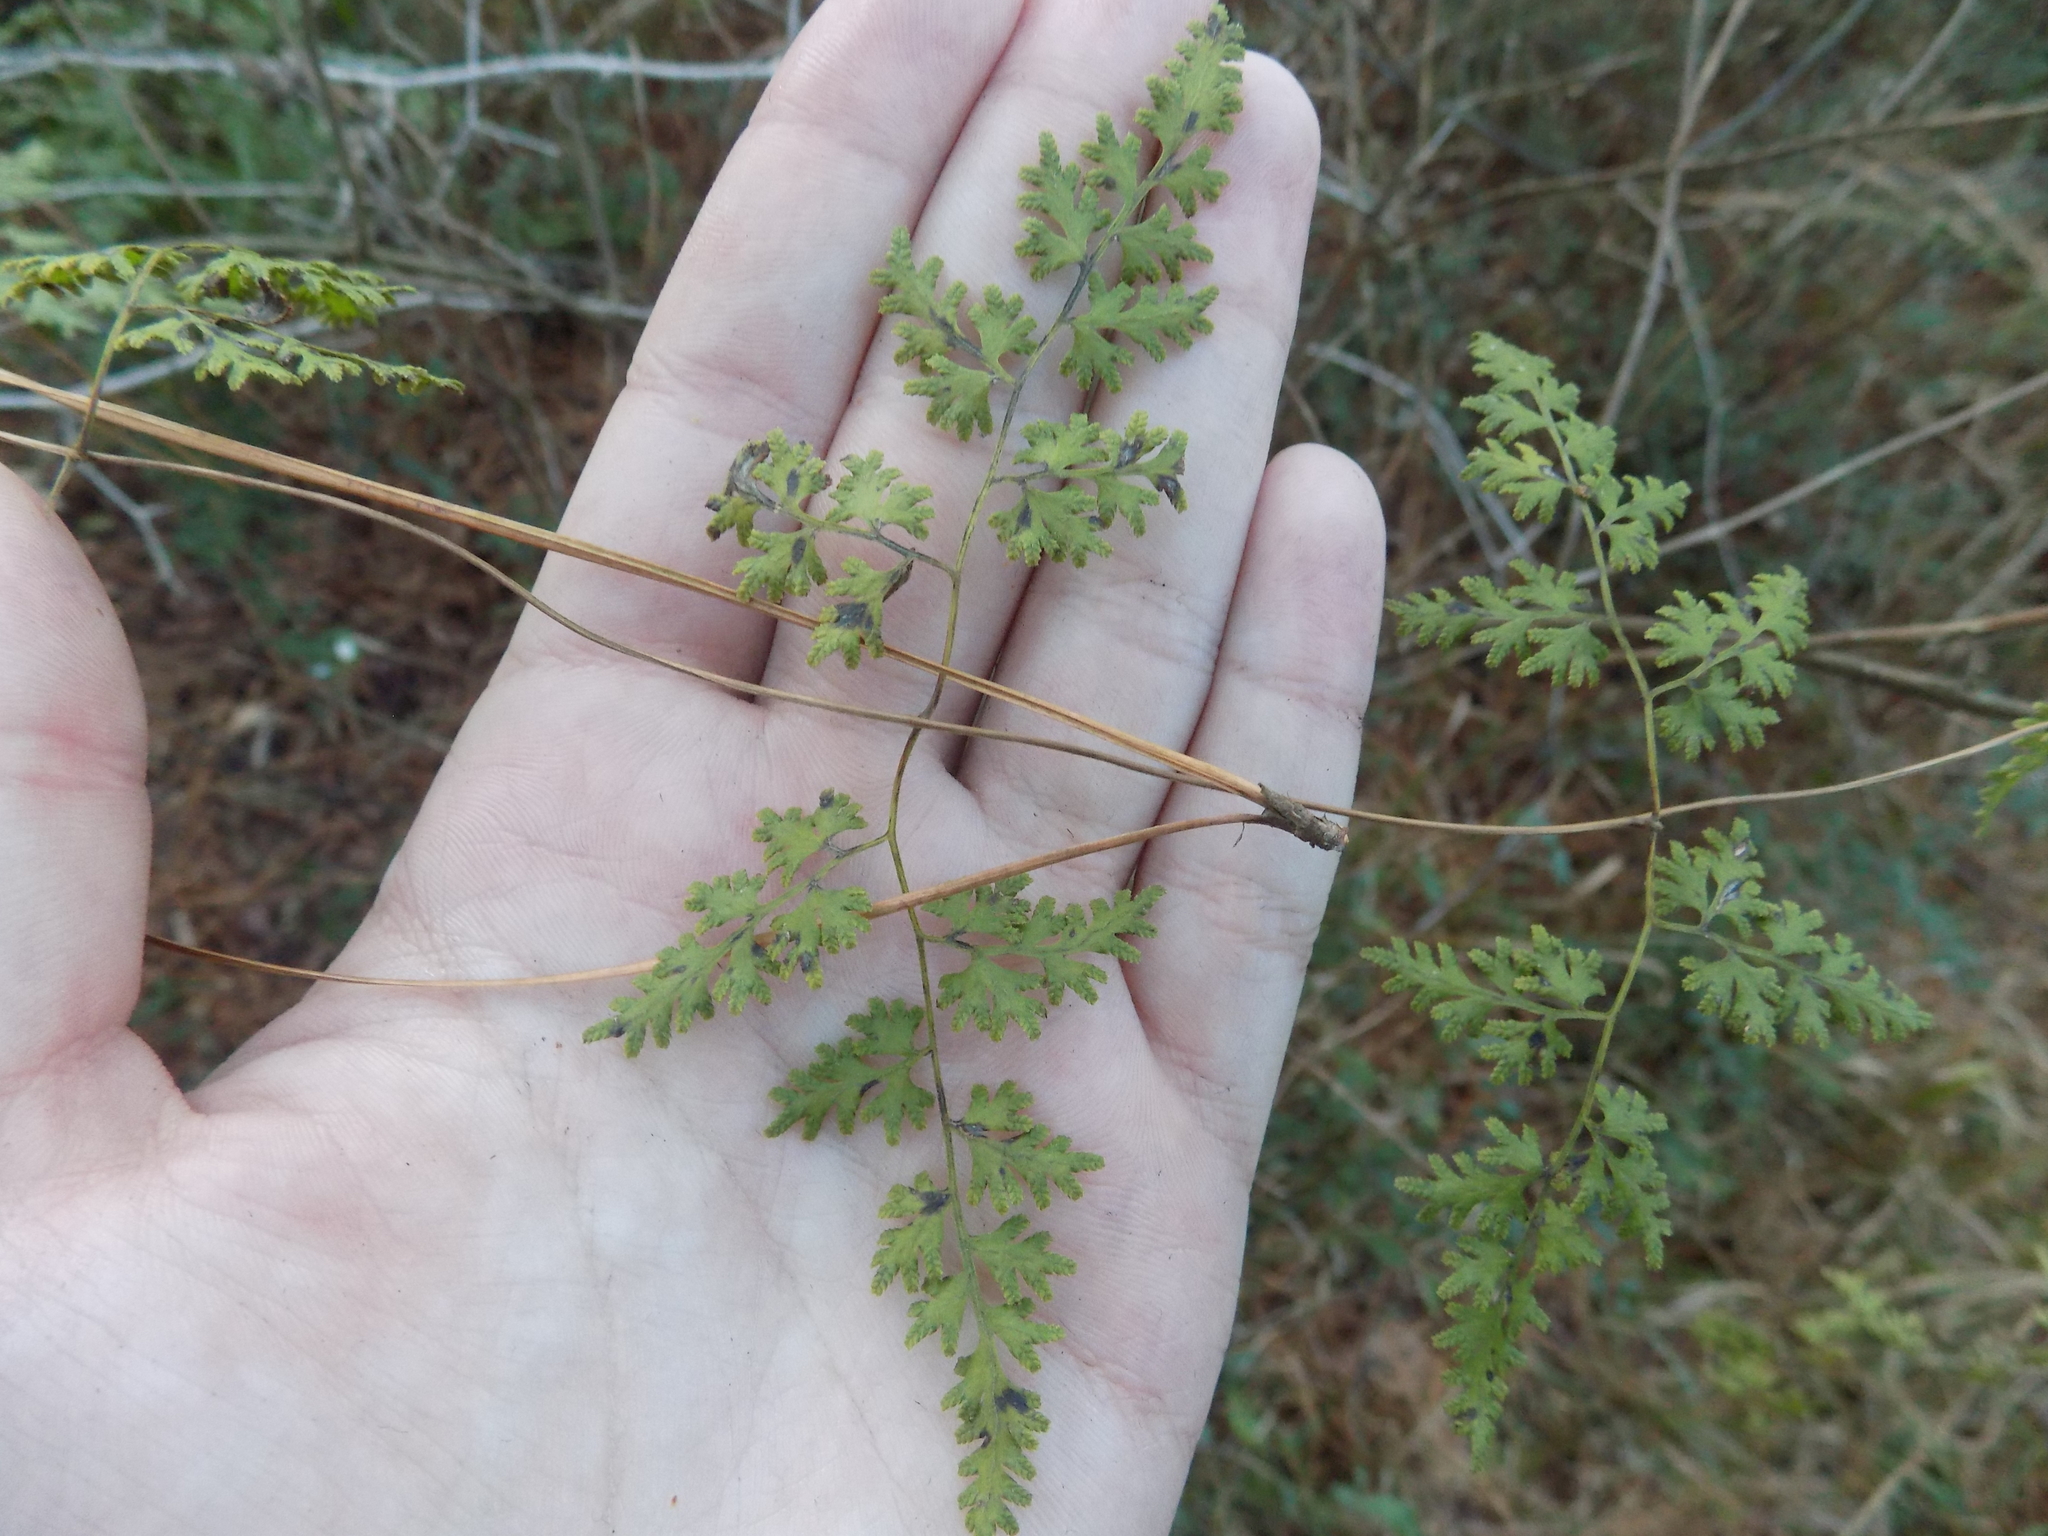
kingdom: Plantae
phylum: Tracheophyta
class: Polypodiopsida
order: Schizaeales
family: Lygodiaceae
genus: Lygodium
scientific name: Lygodium japonicum
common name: Japanese climbing fern
